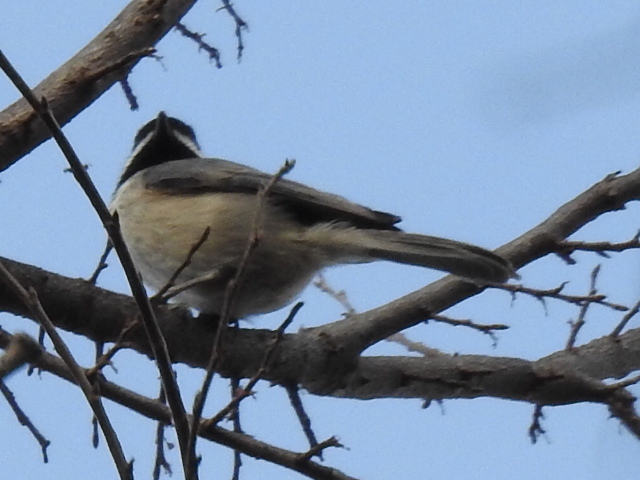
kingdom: Animalia
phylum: Chordata
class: Aves
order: Passeriformes
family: Paridae
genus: Poecile
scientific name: Poecile carolinensis
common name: Carolina chickadee
